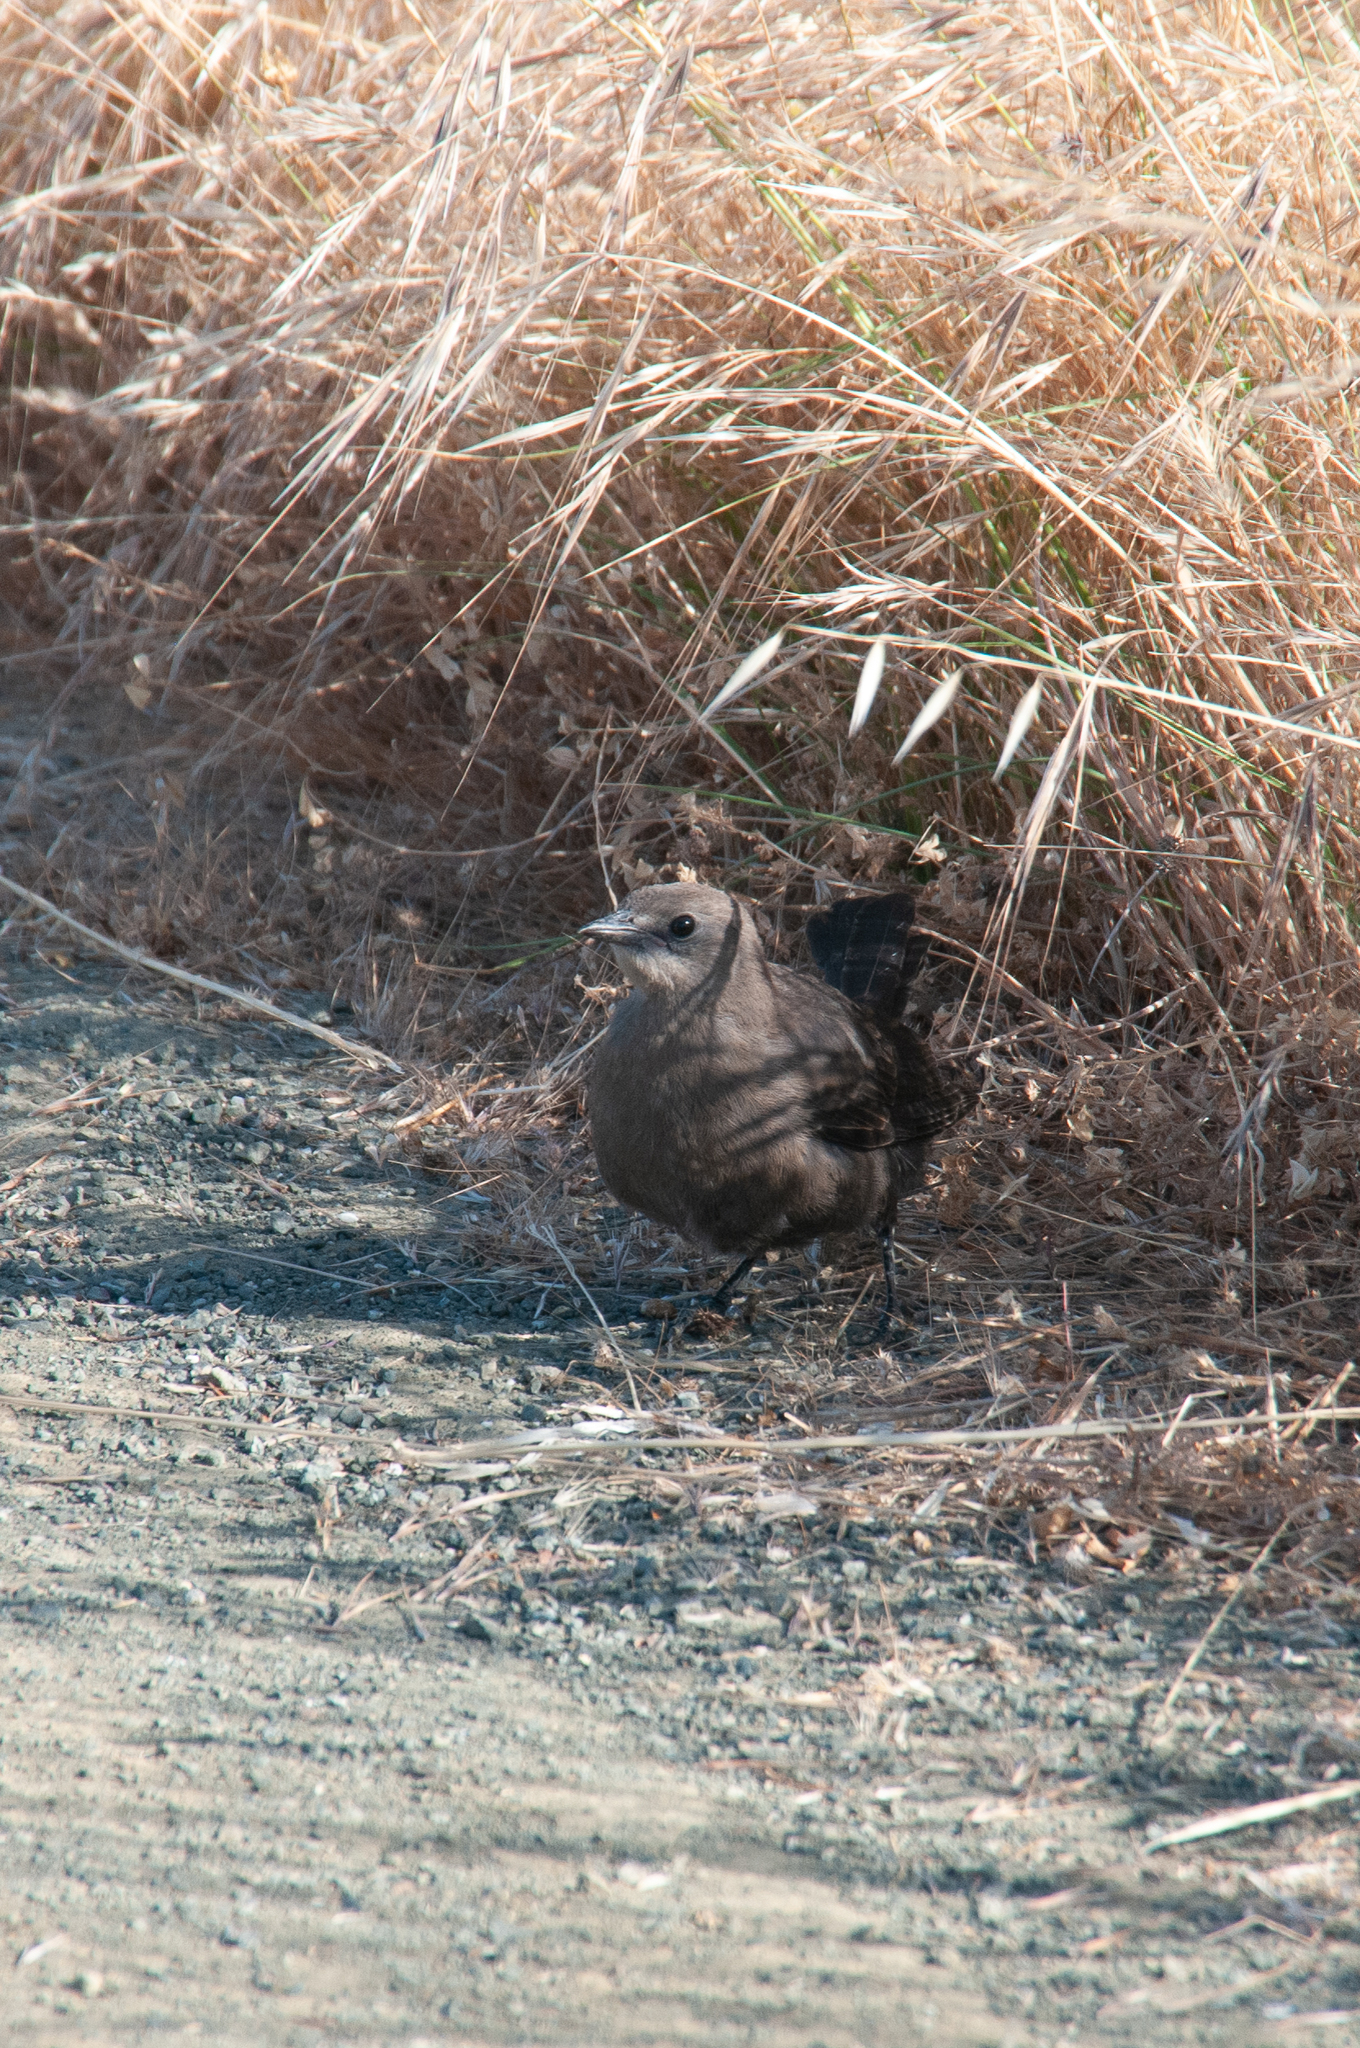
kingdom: Animalia
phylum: Chordata
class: Aves
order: Passeriformes
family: Icteridae
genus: Euphagus
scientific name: Euphagus cyanocephalus
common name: Brewer's blackbird
